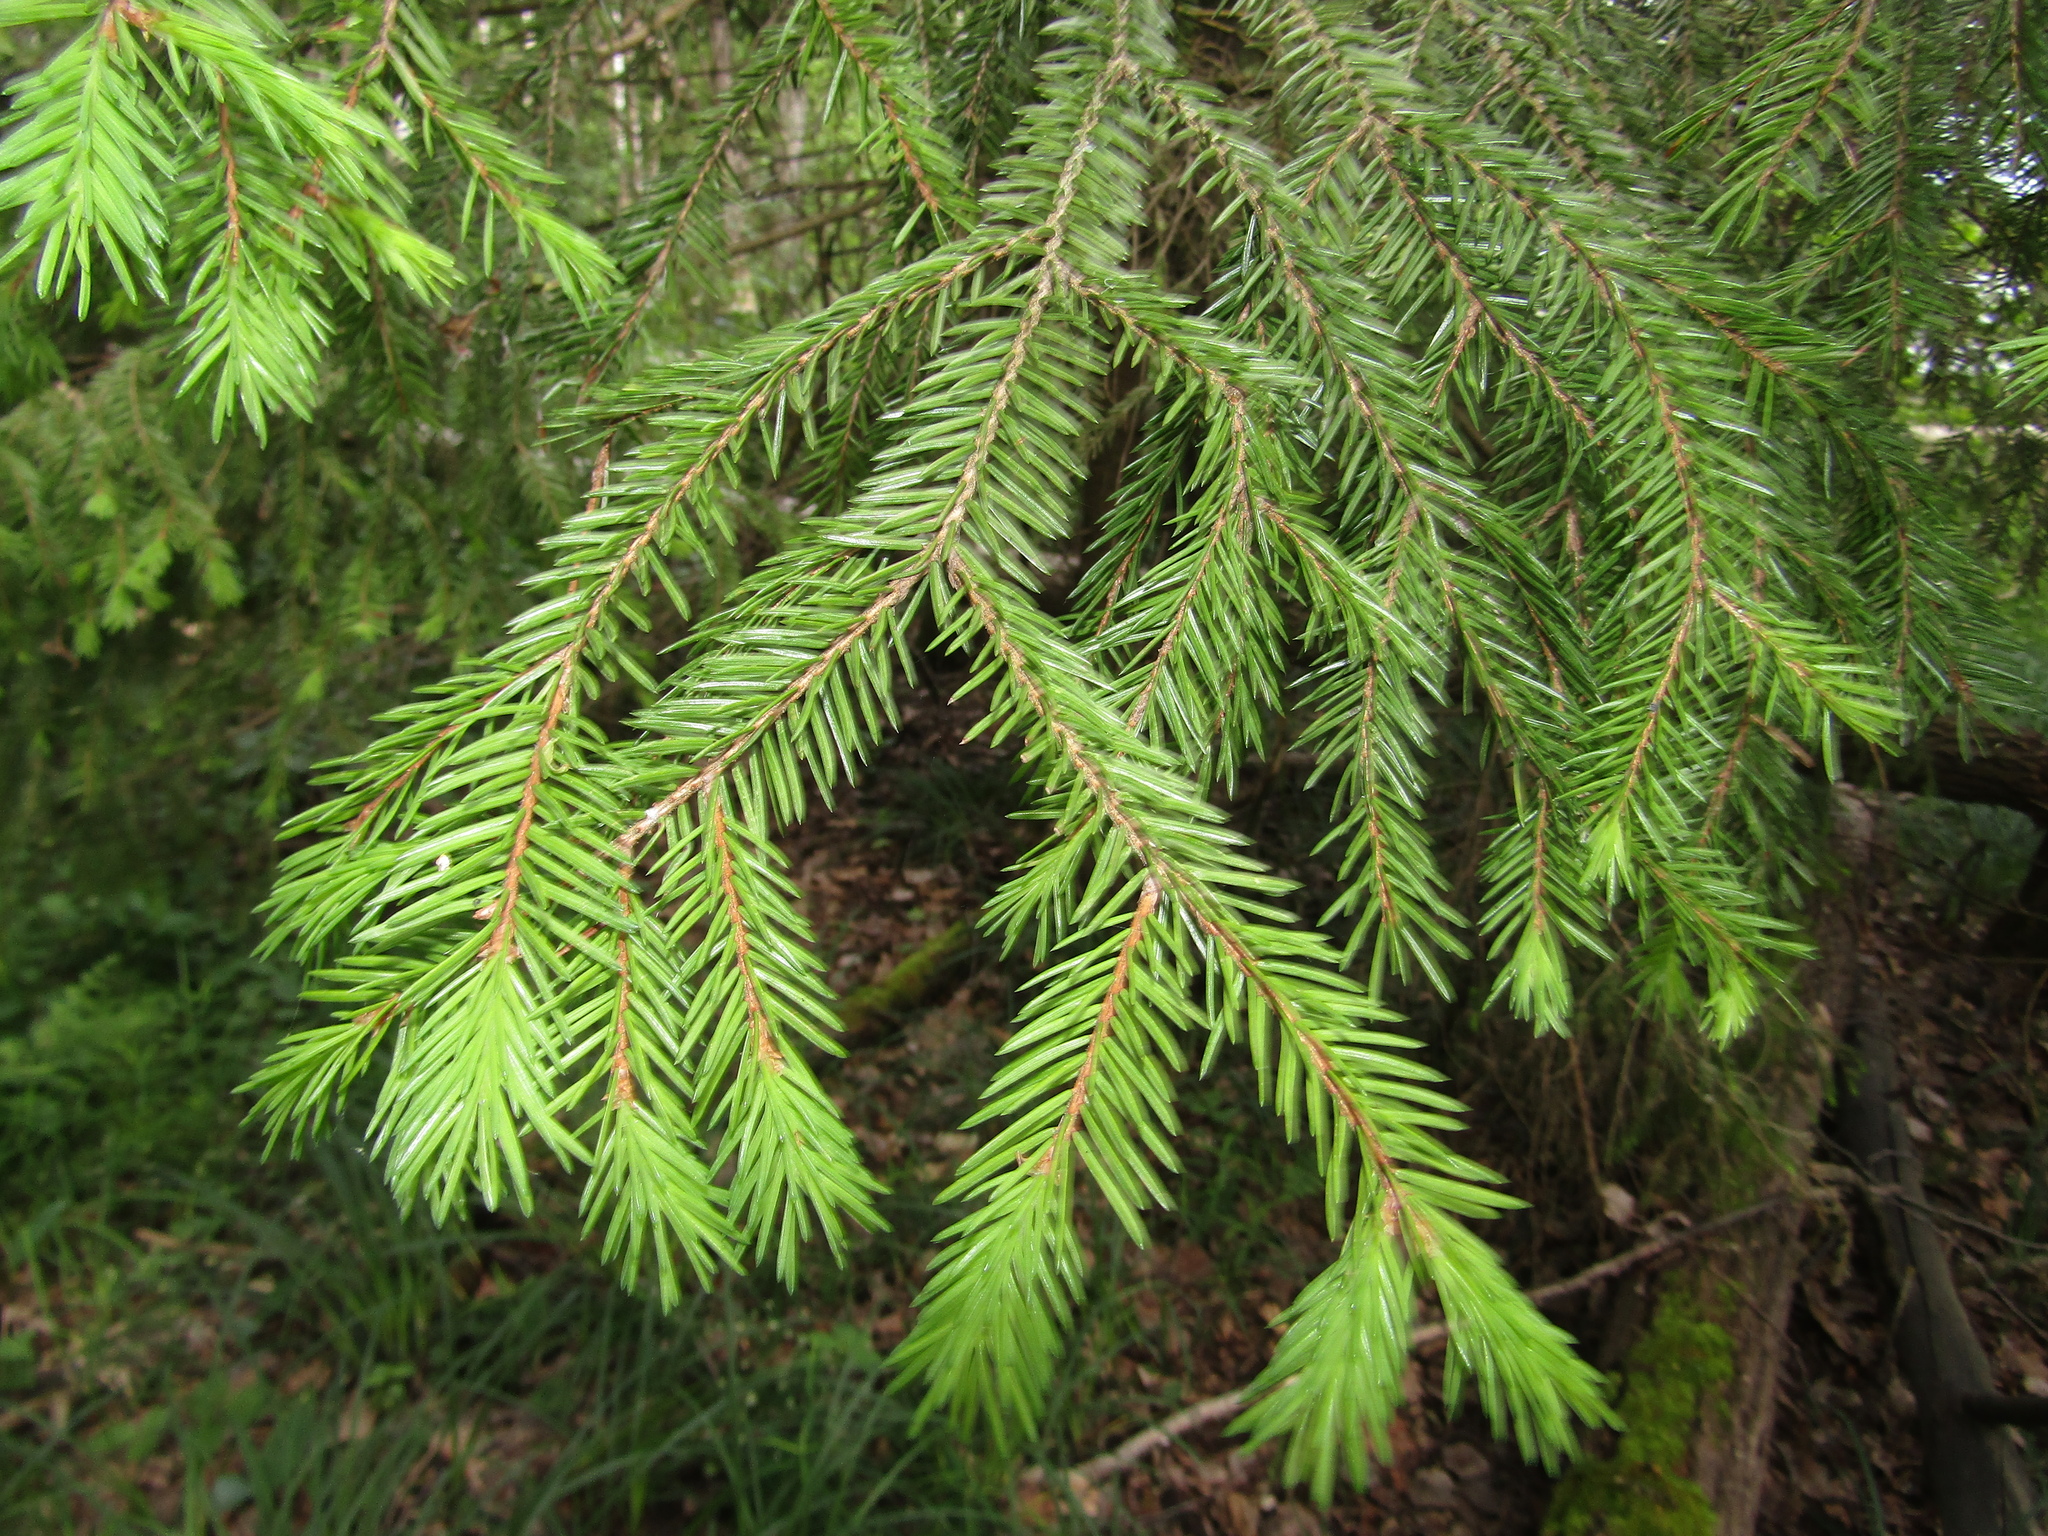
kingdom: Plantae
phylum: Tracheophyta
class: Pinopsida
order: Pinales
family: Pinaceae
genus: Picea
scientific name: Picea abies
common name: Norway spruce
